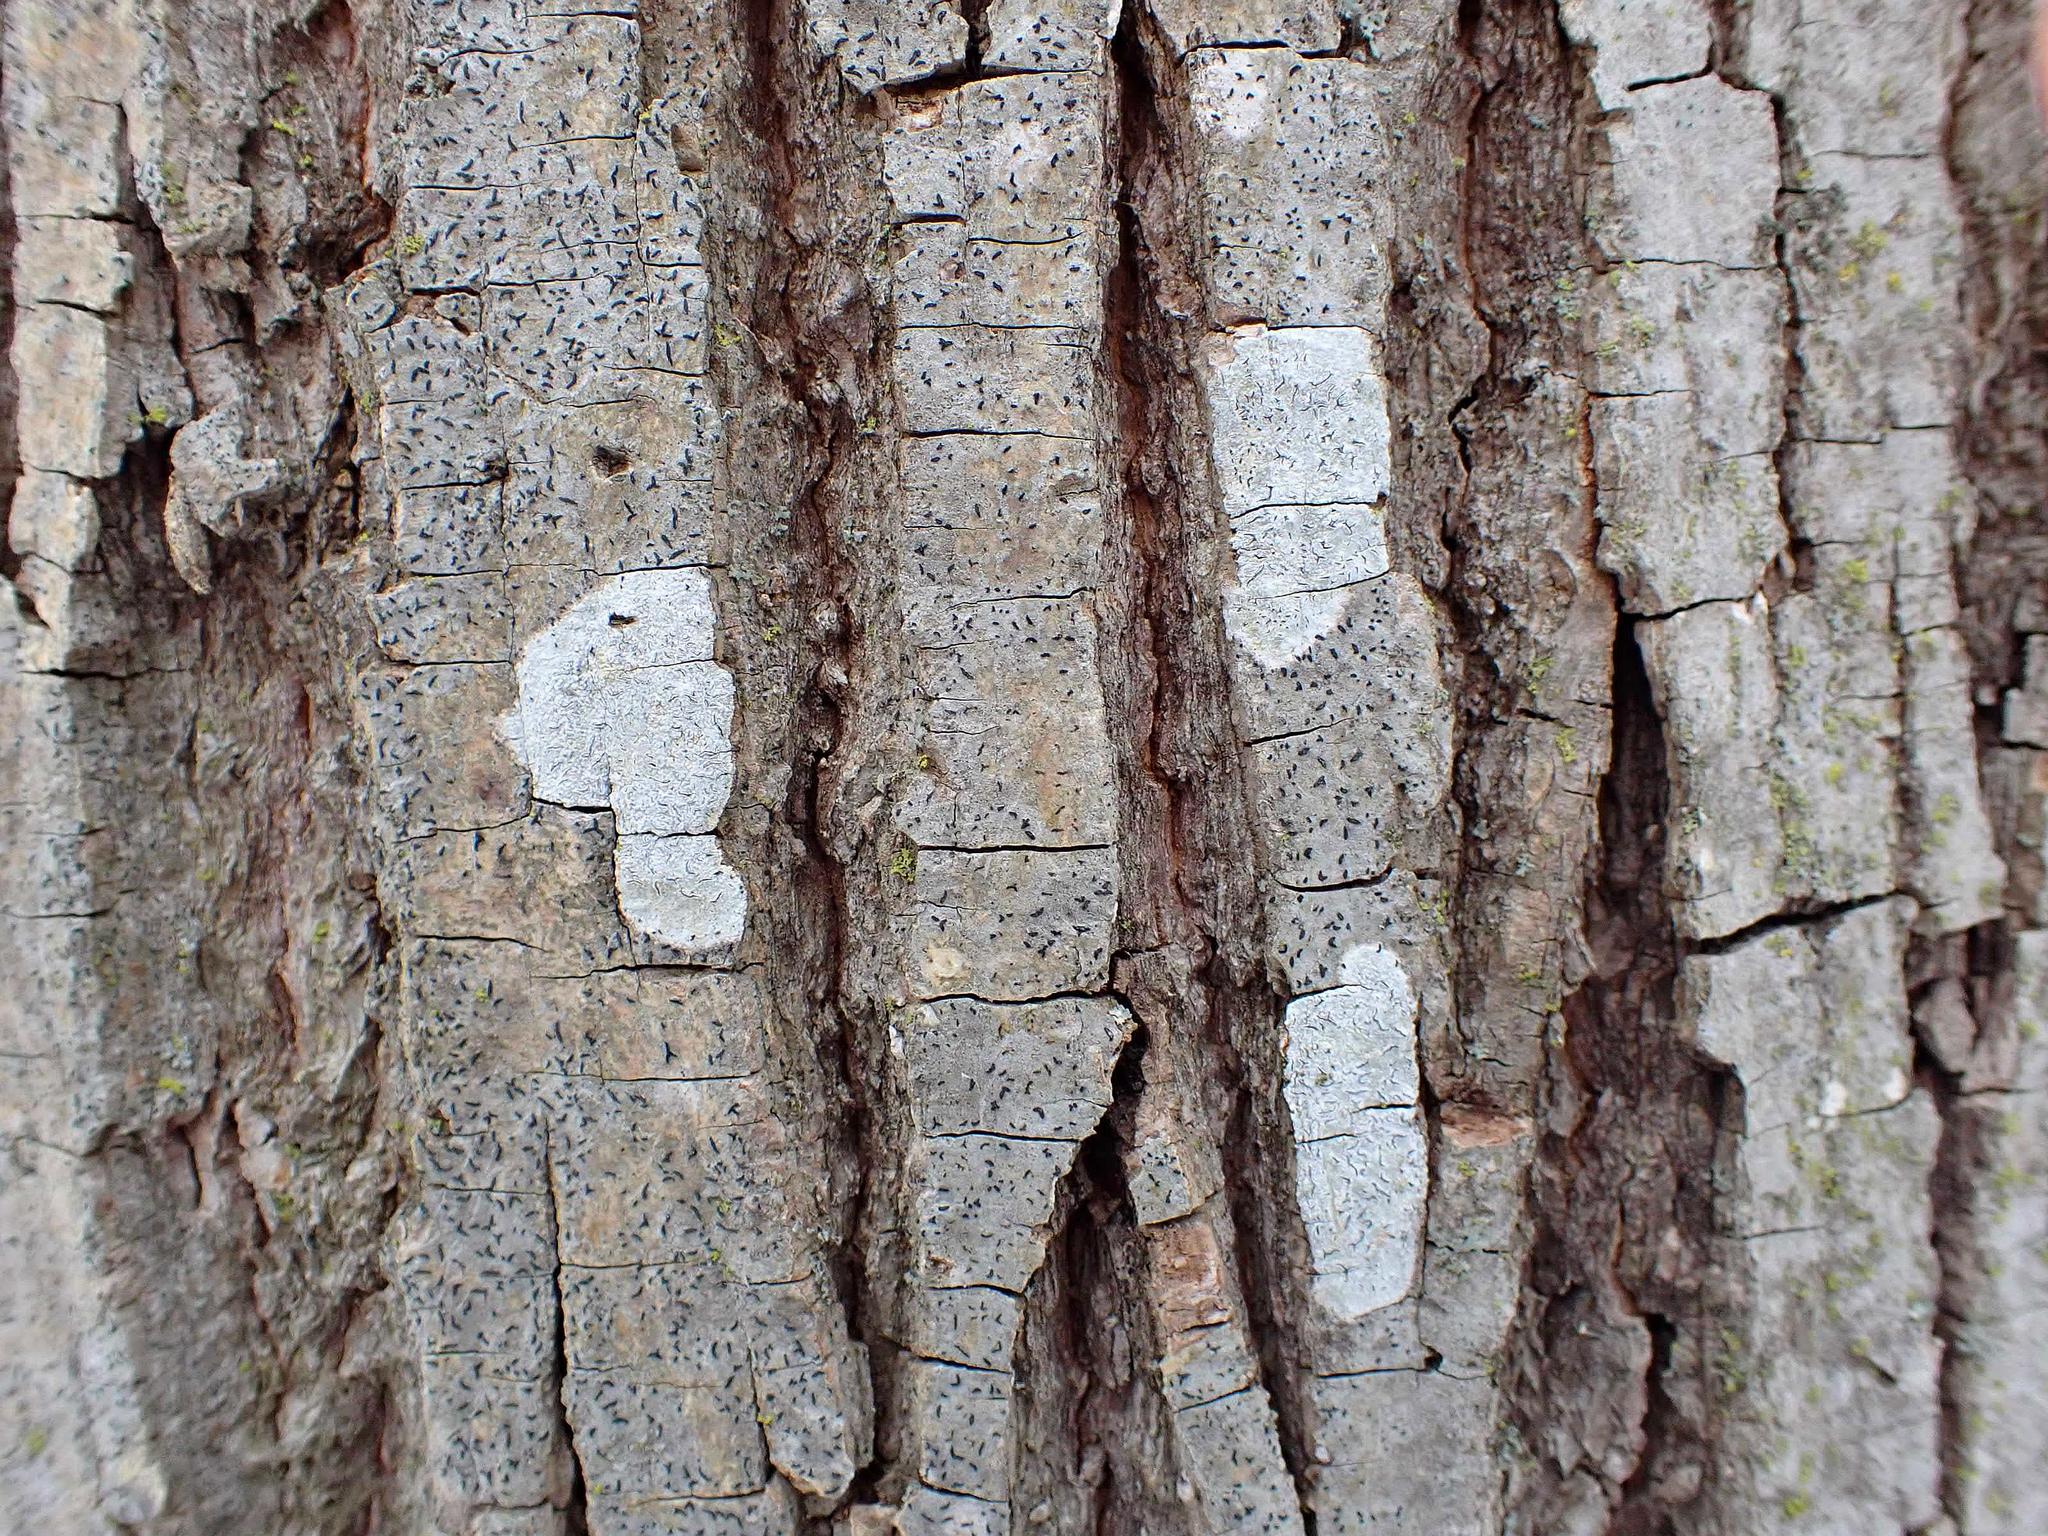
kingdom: Fungi
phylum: Ascomycota
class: Arthoniomycetes
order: Arthoniales
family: Lecanographaceae
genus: Alyxoria
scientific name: Alyxoria varia
